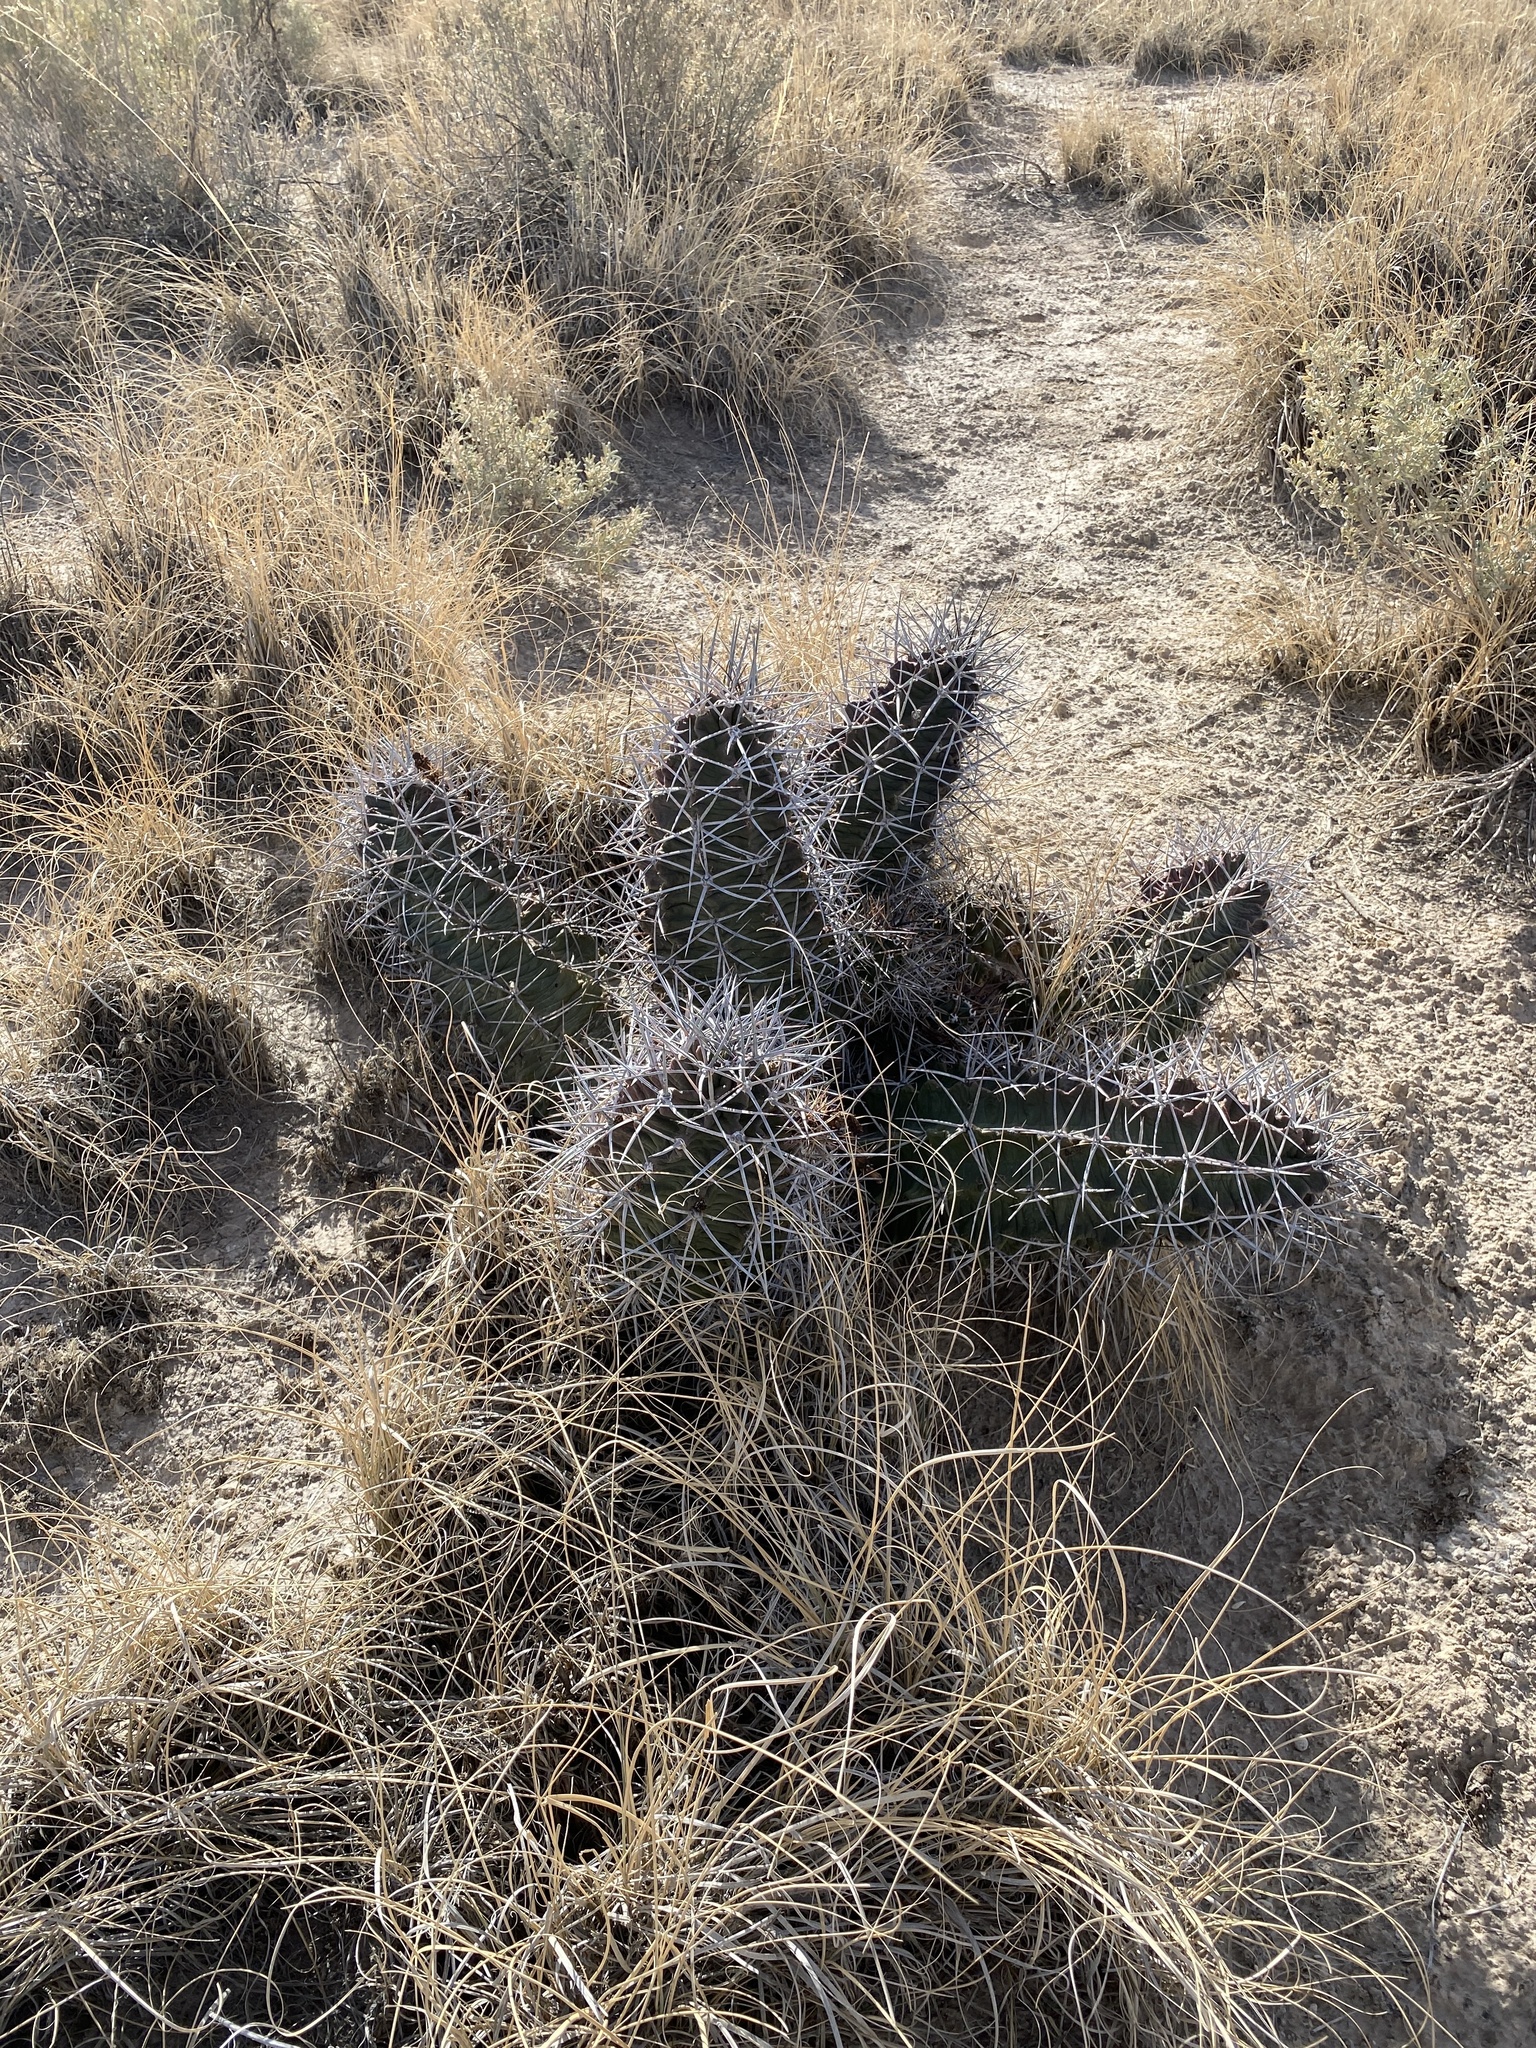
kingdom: Plantae
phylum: Tracheophyta
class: Magnoliopsida
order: Caryophyllales
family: Cactaceae
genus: Echinocereus
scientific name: Echinocereus triglochidiatus
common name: Claretcup hedgehog
